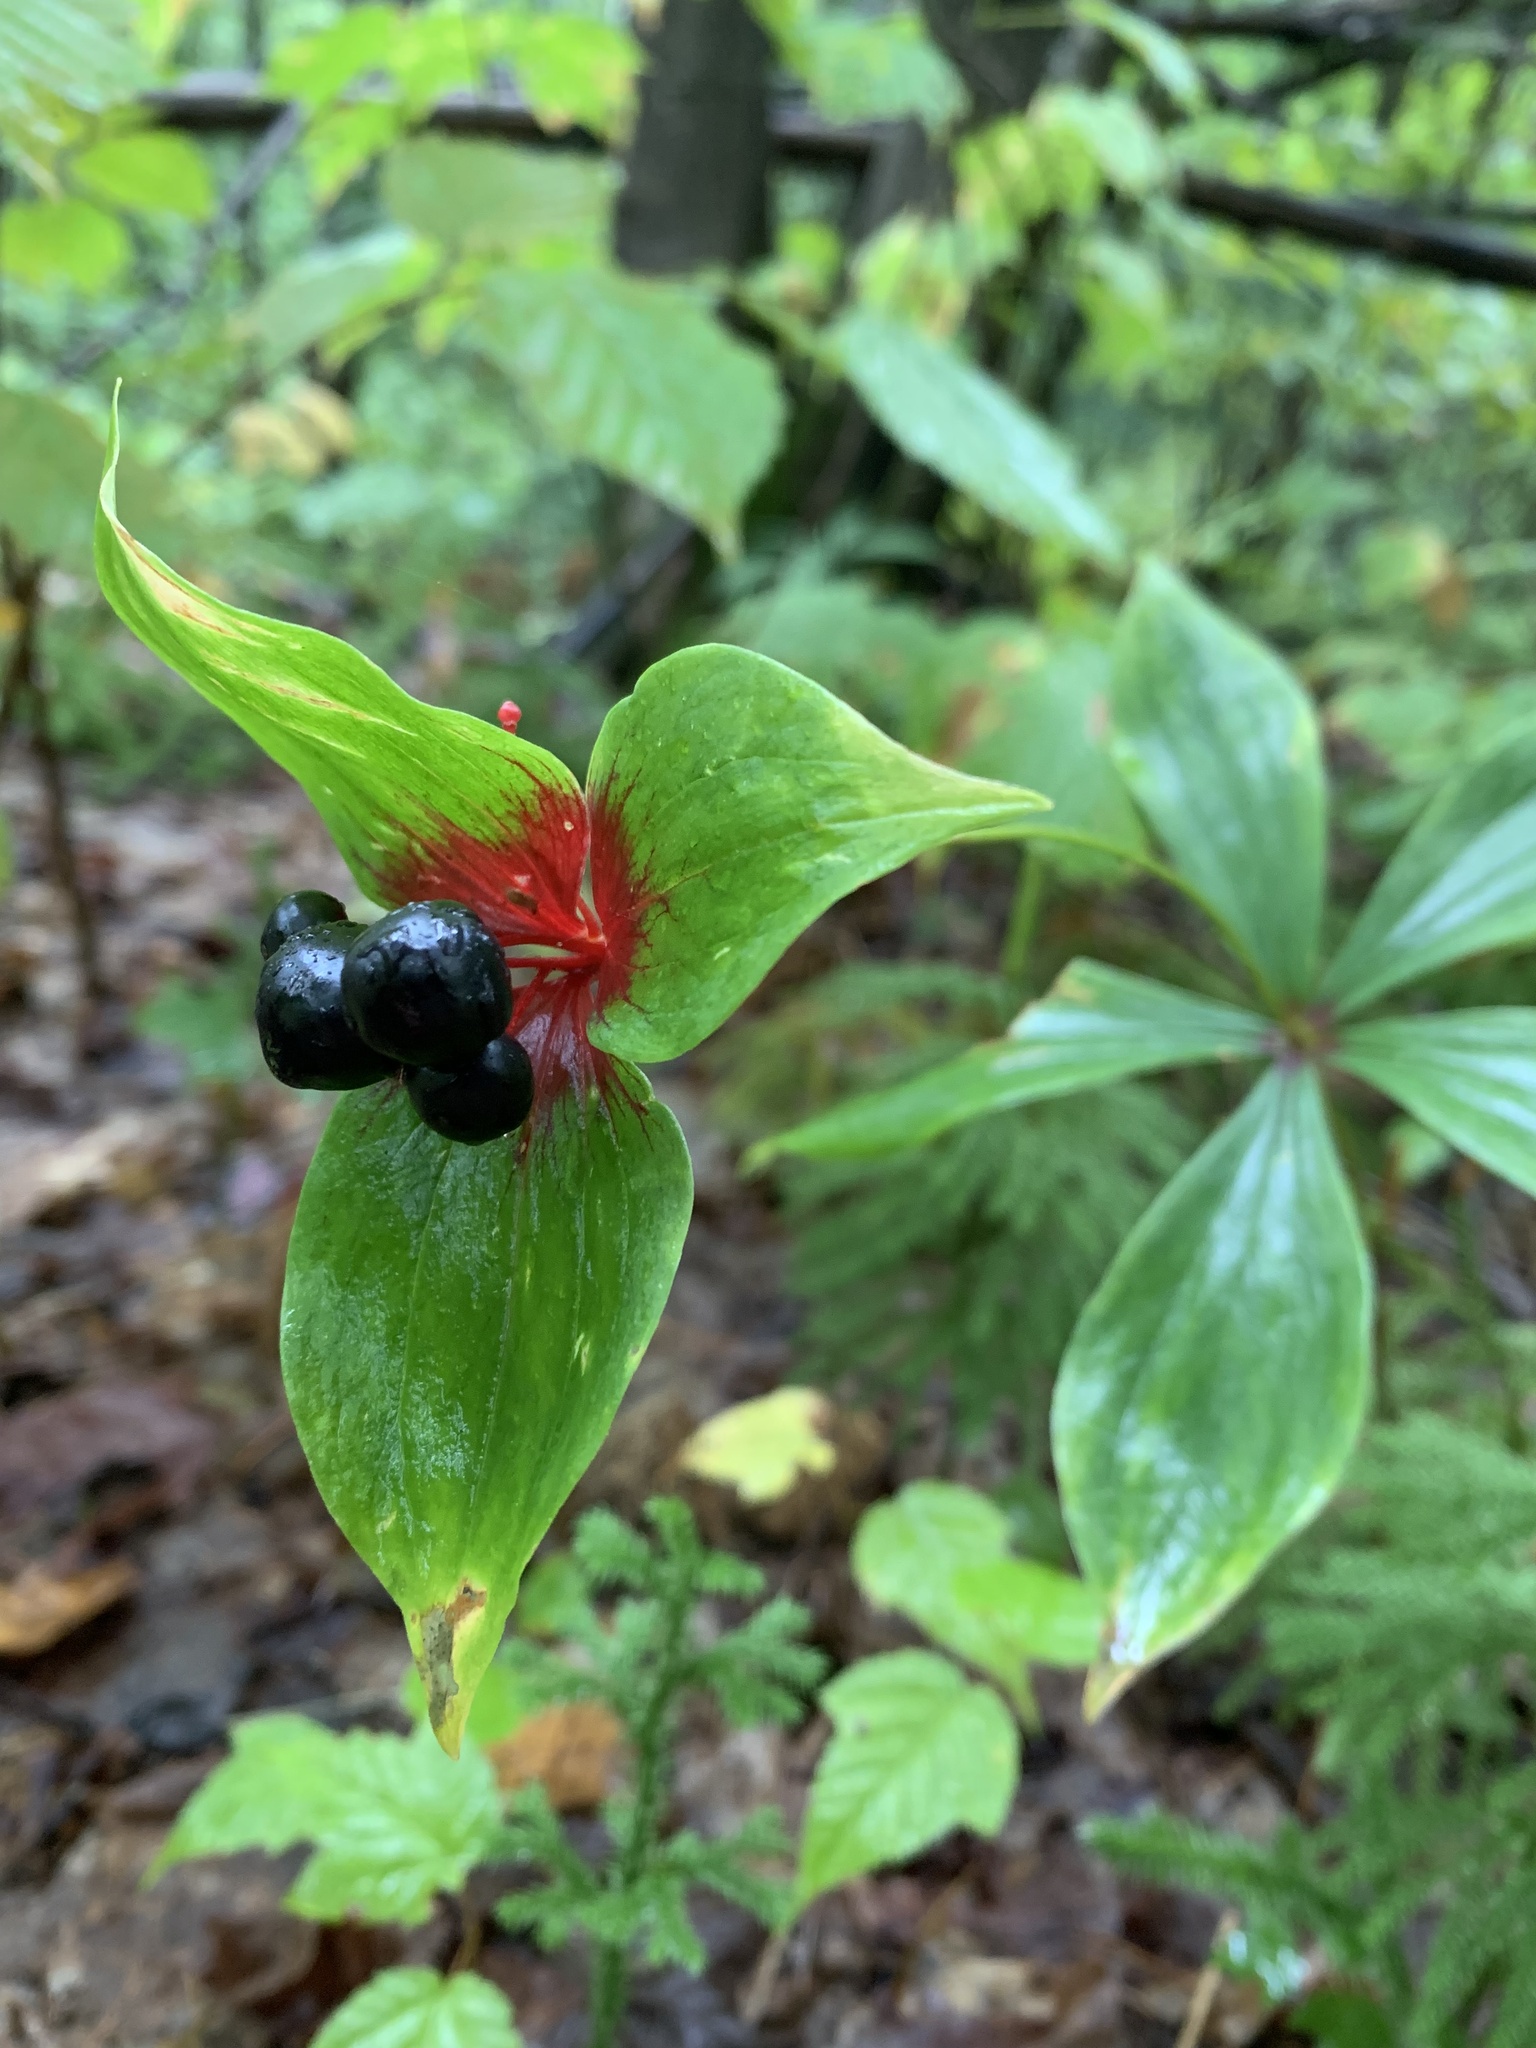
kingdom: Plantae
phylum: Tracheophyta
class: Liliopsida
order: Liliales
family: Liliaceae
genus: Medeola
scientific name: Medeola virginiana
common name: Indian cucumber-root
